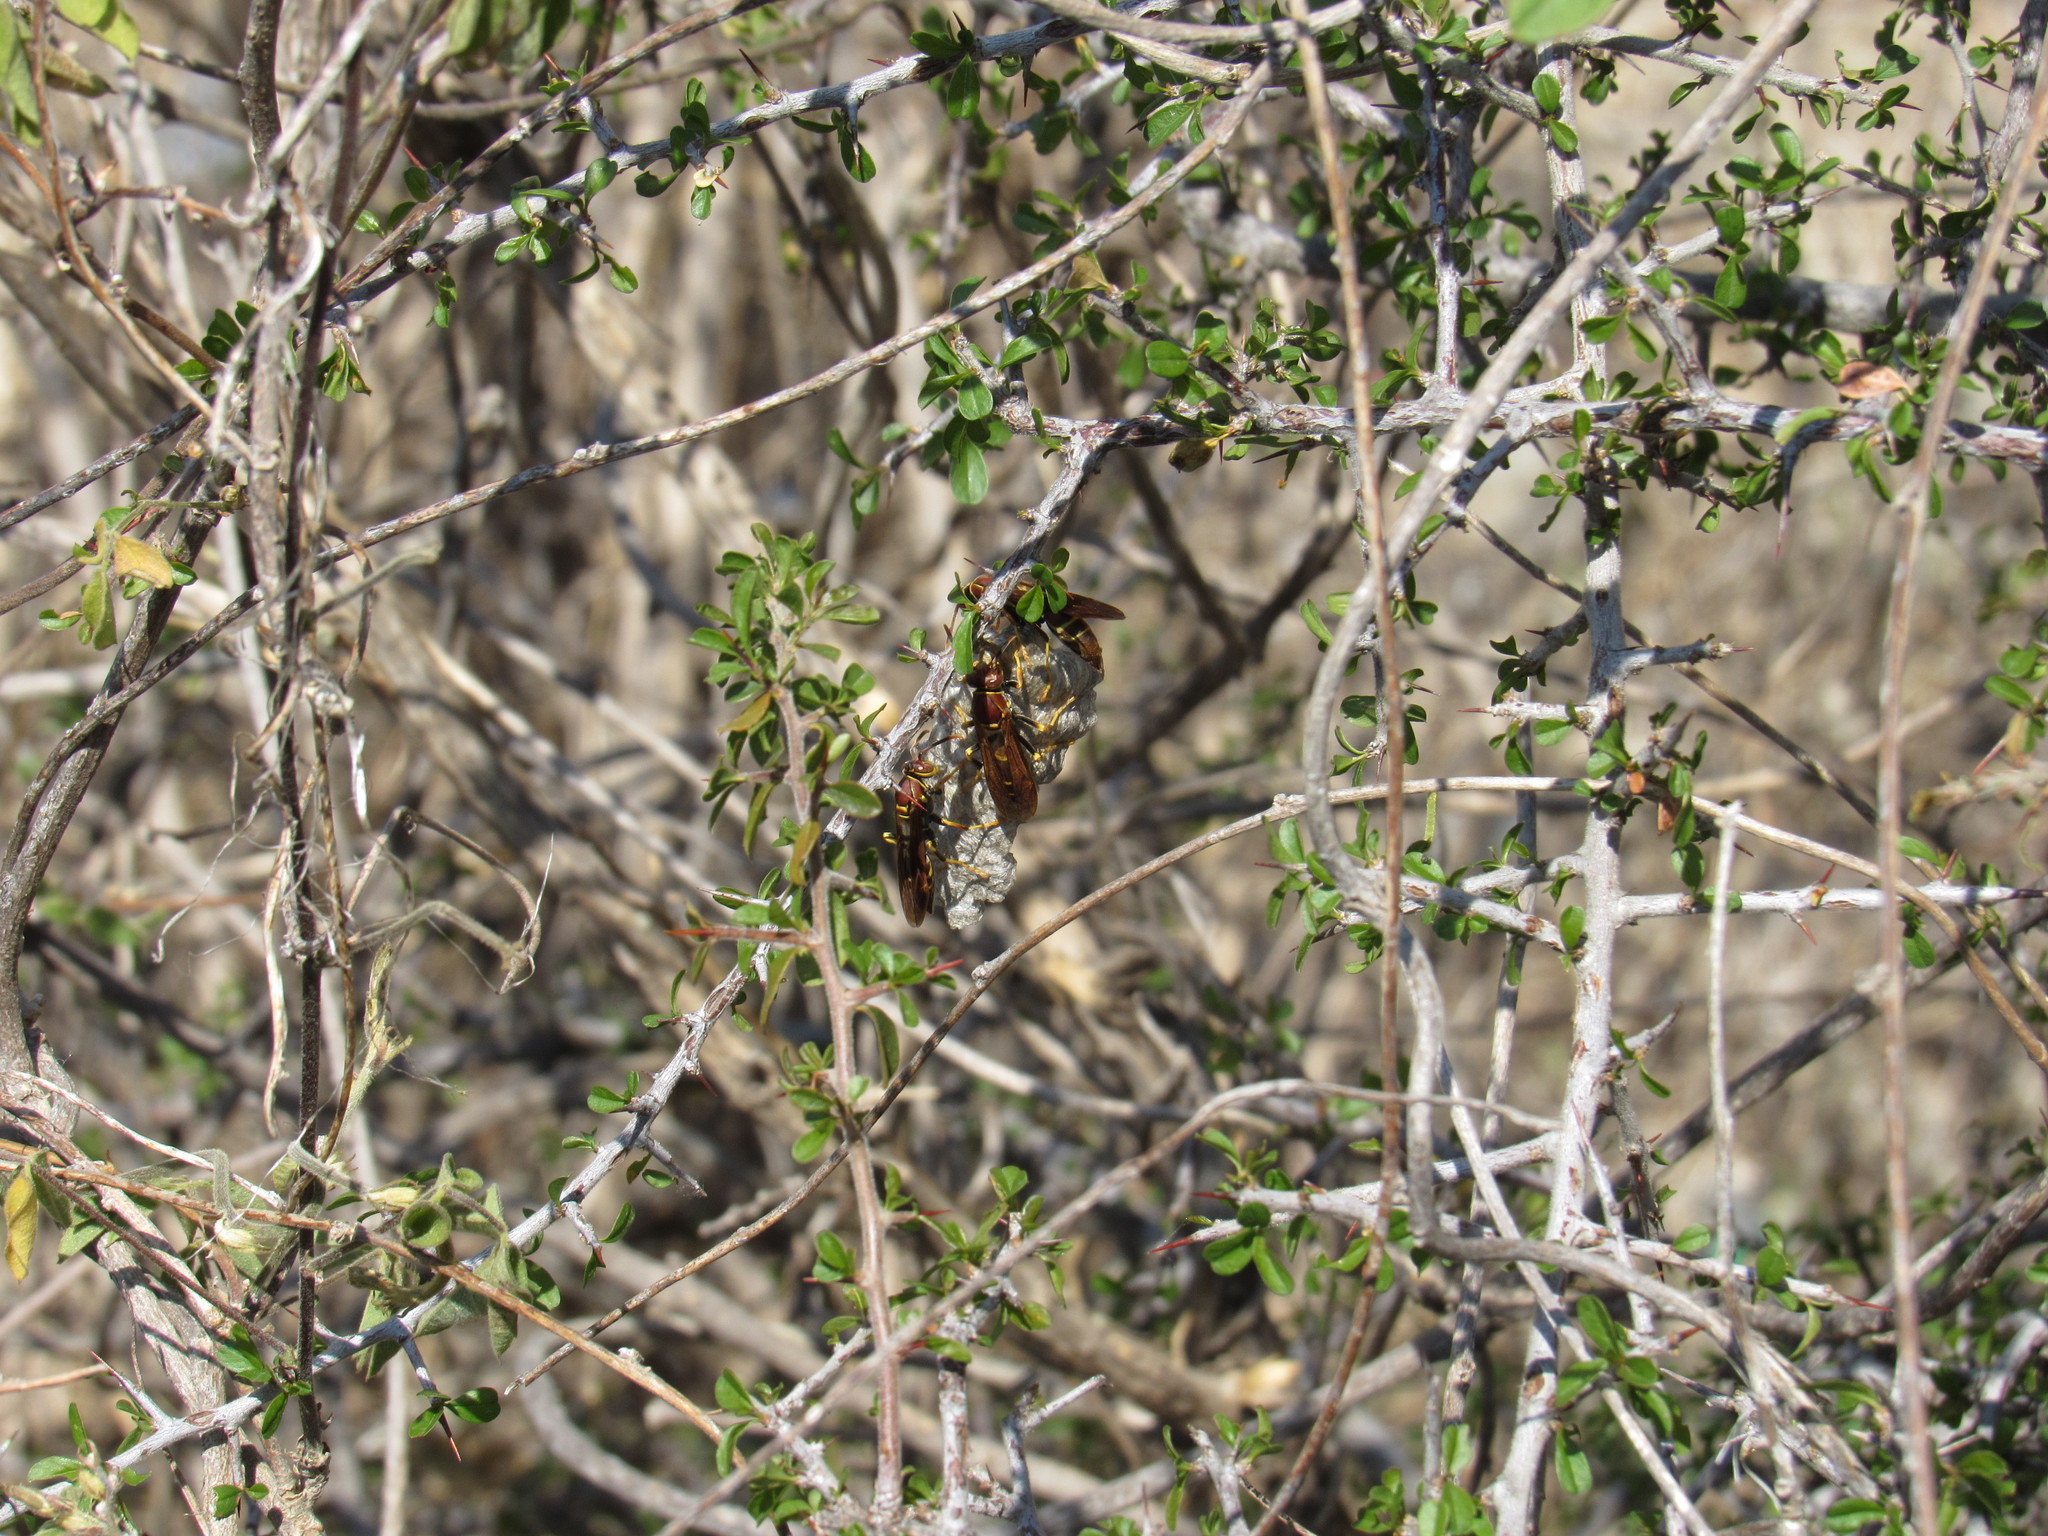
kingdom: Animalia
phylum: Arthropoda
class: Insecta
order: Hymenoptera
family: Eumenidae
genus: Polistes
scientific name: Polistes instabilis
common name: Unstable paper wasp
